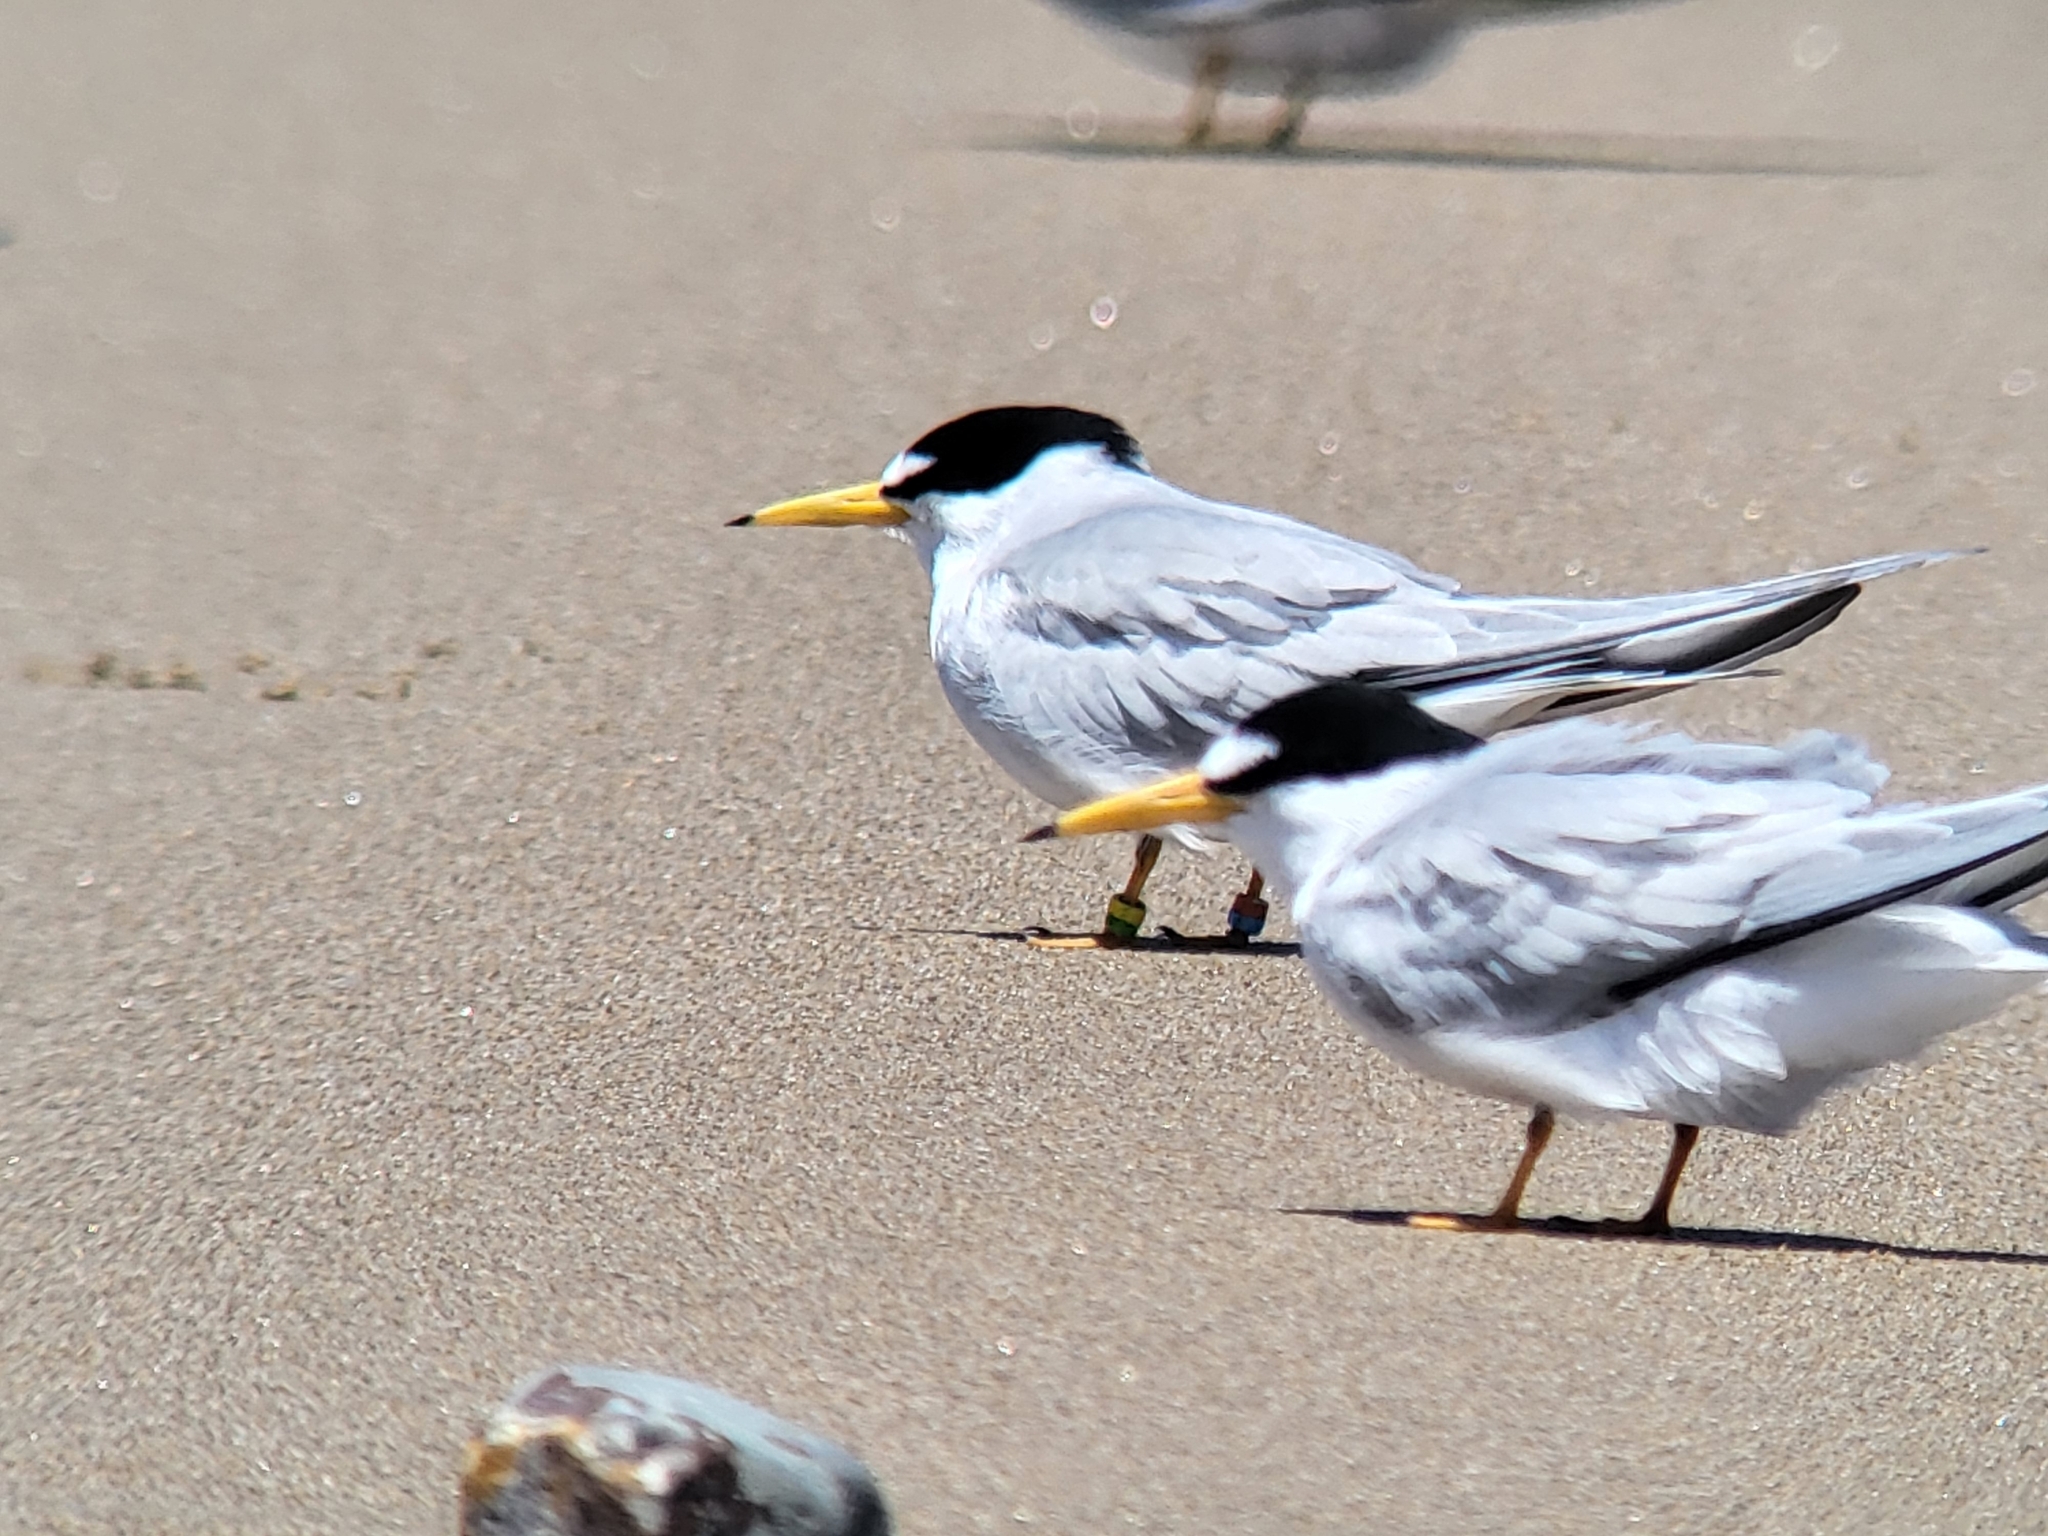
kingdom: Animalia
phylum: Chordata
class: Aves
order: Charadriiformes
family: Laridae
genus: Sternula
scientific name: Sternula antillarum
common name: Least tern
